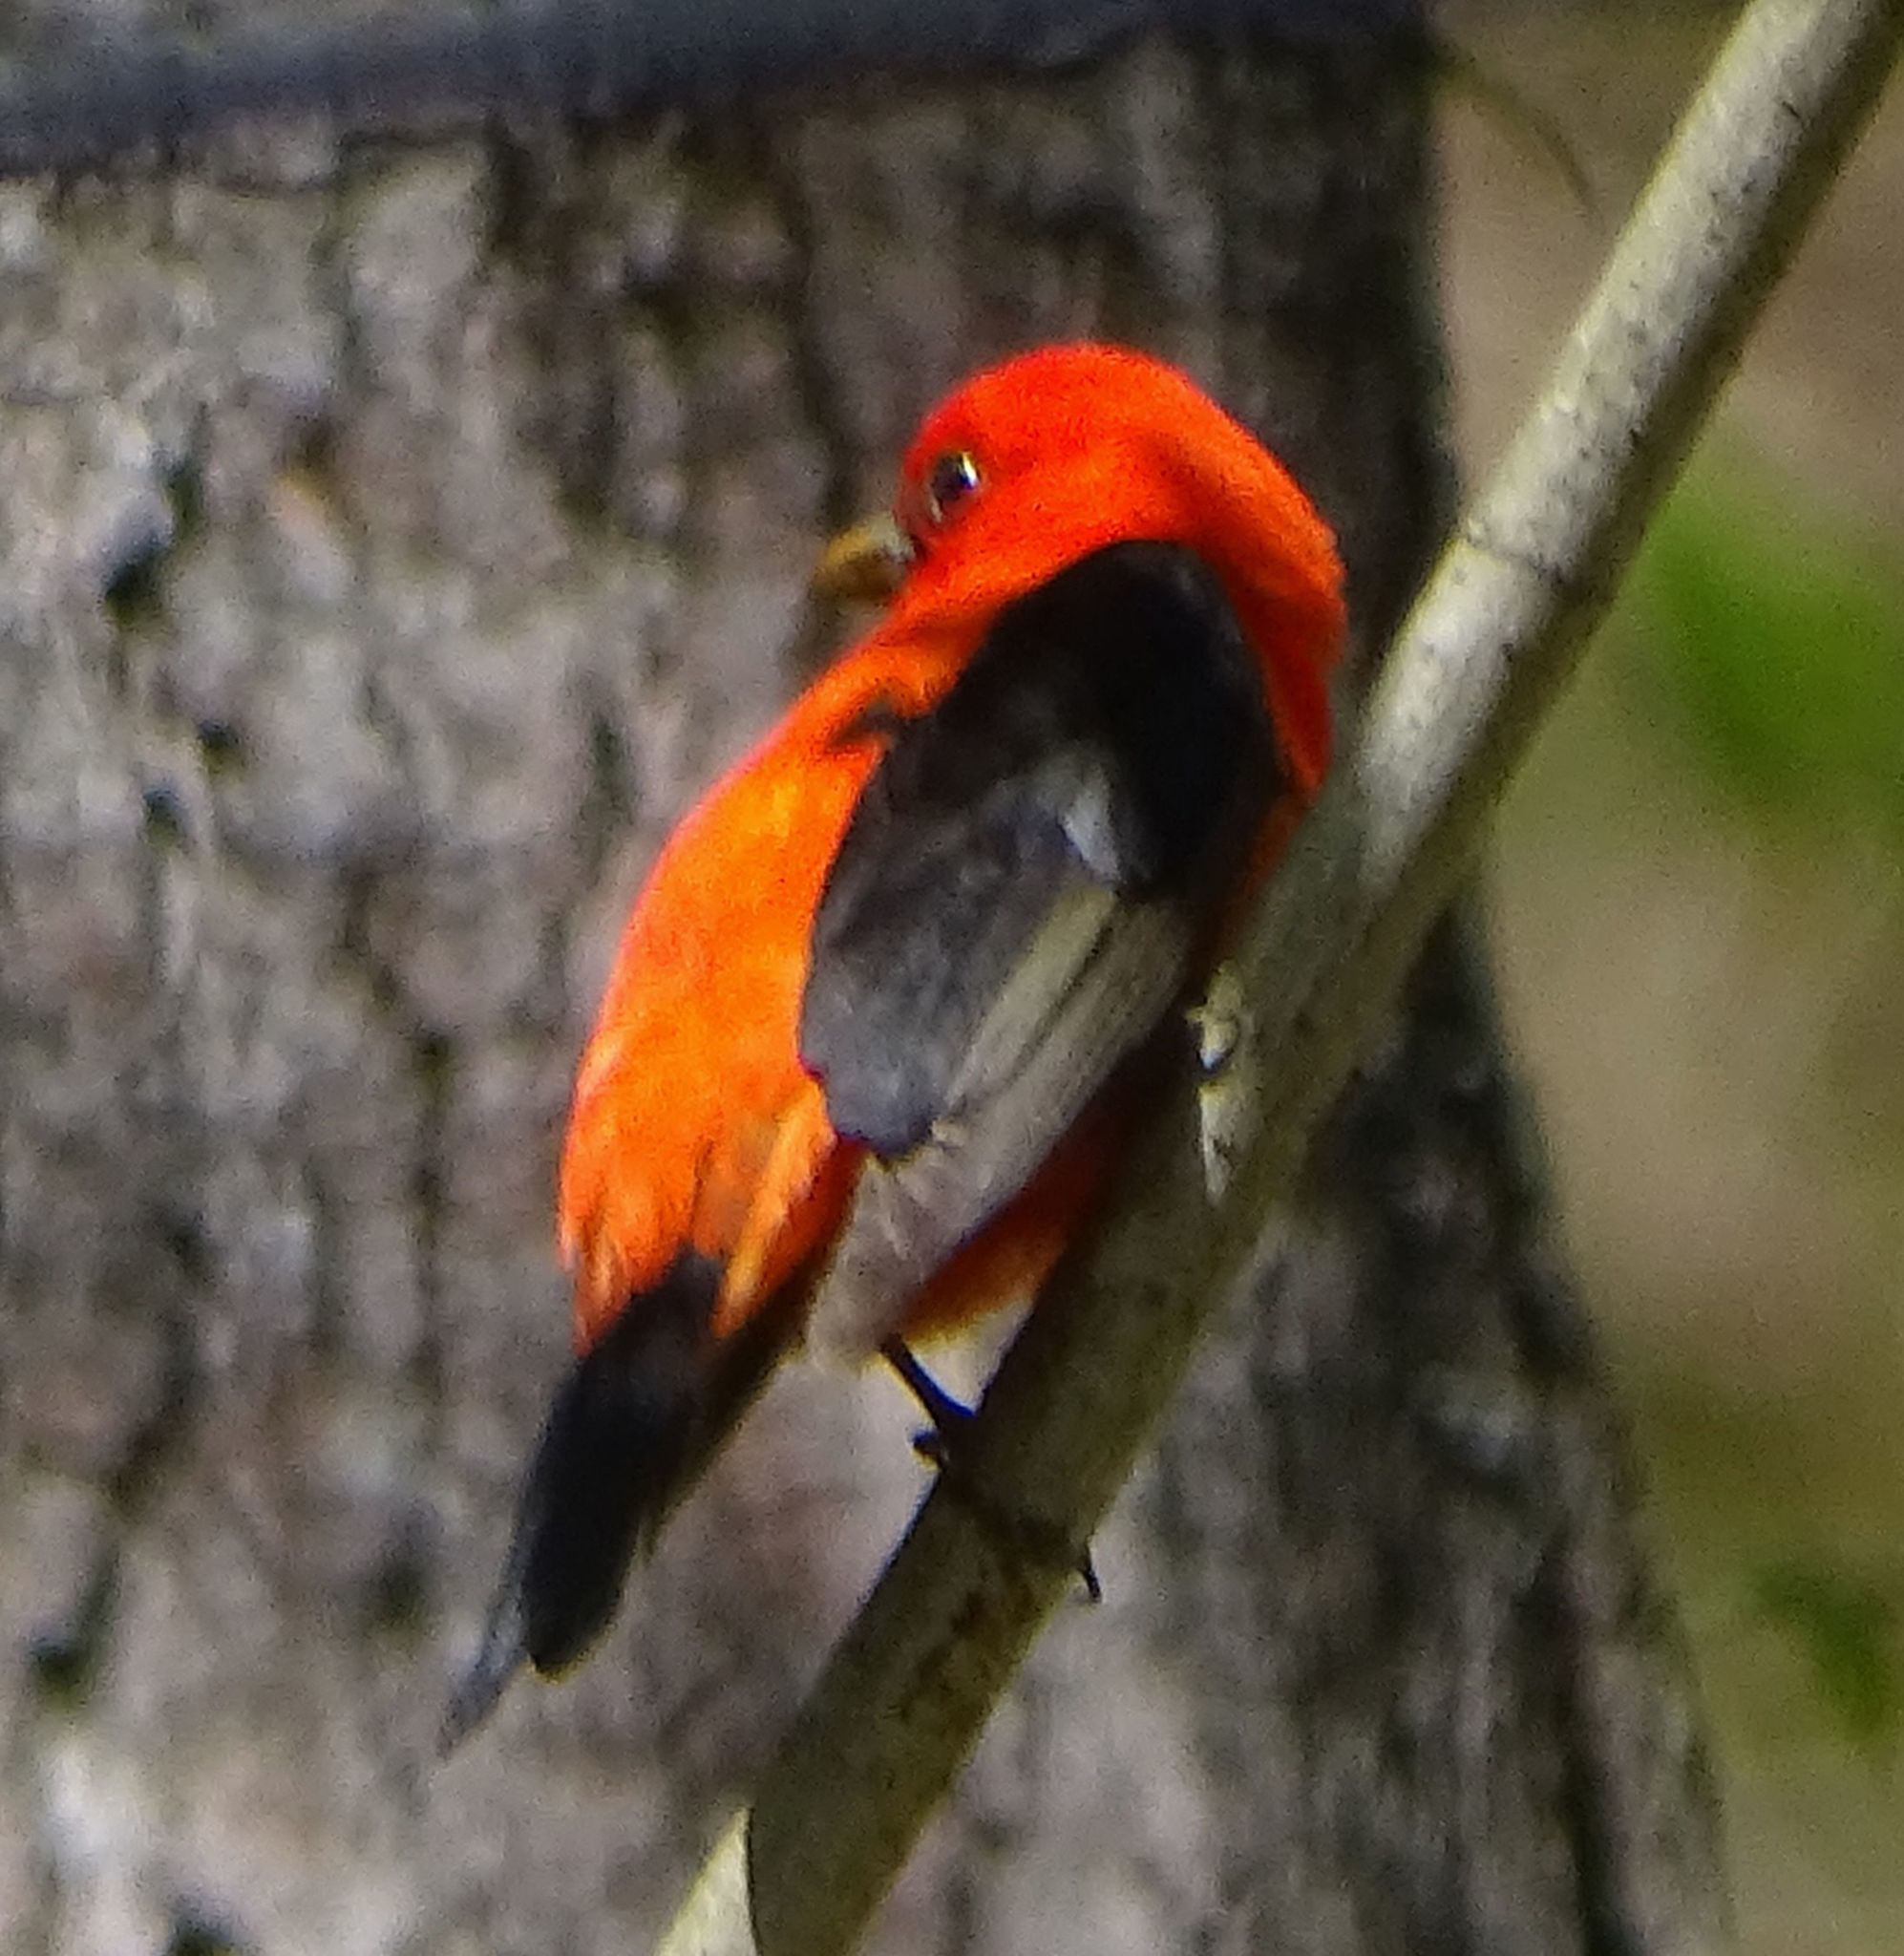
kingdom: Animalia
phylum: Chordata
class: Aves
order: Passeriformes
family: Cardinalidae
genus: Piranga
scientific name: Piranga olivacea
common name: Scarlet tanager
